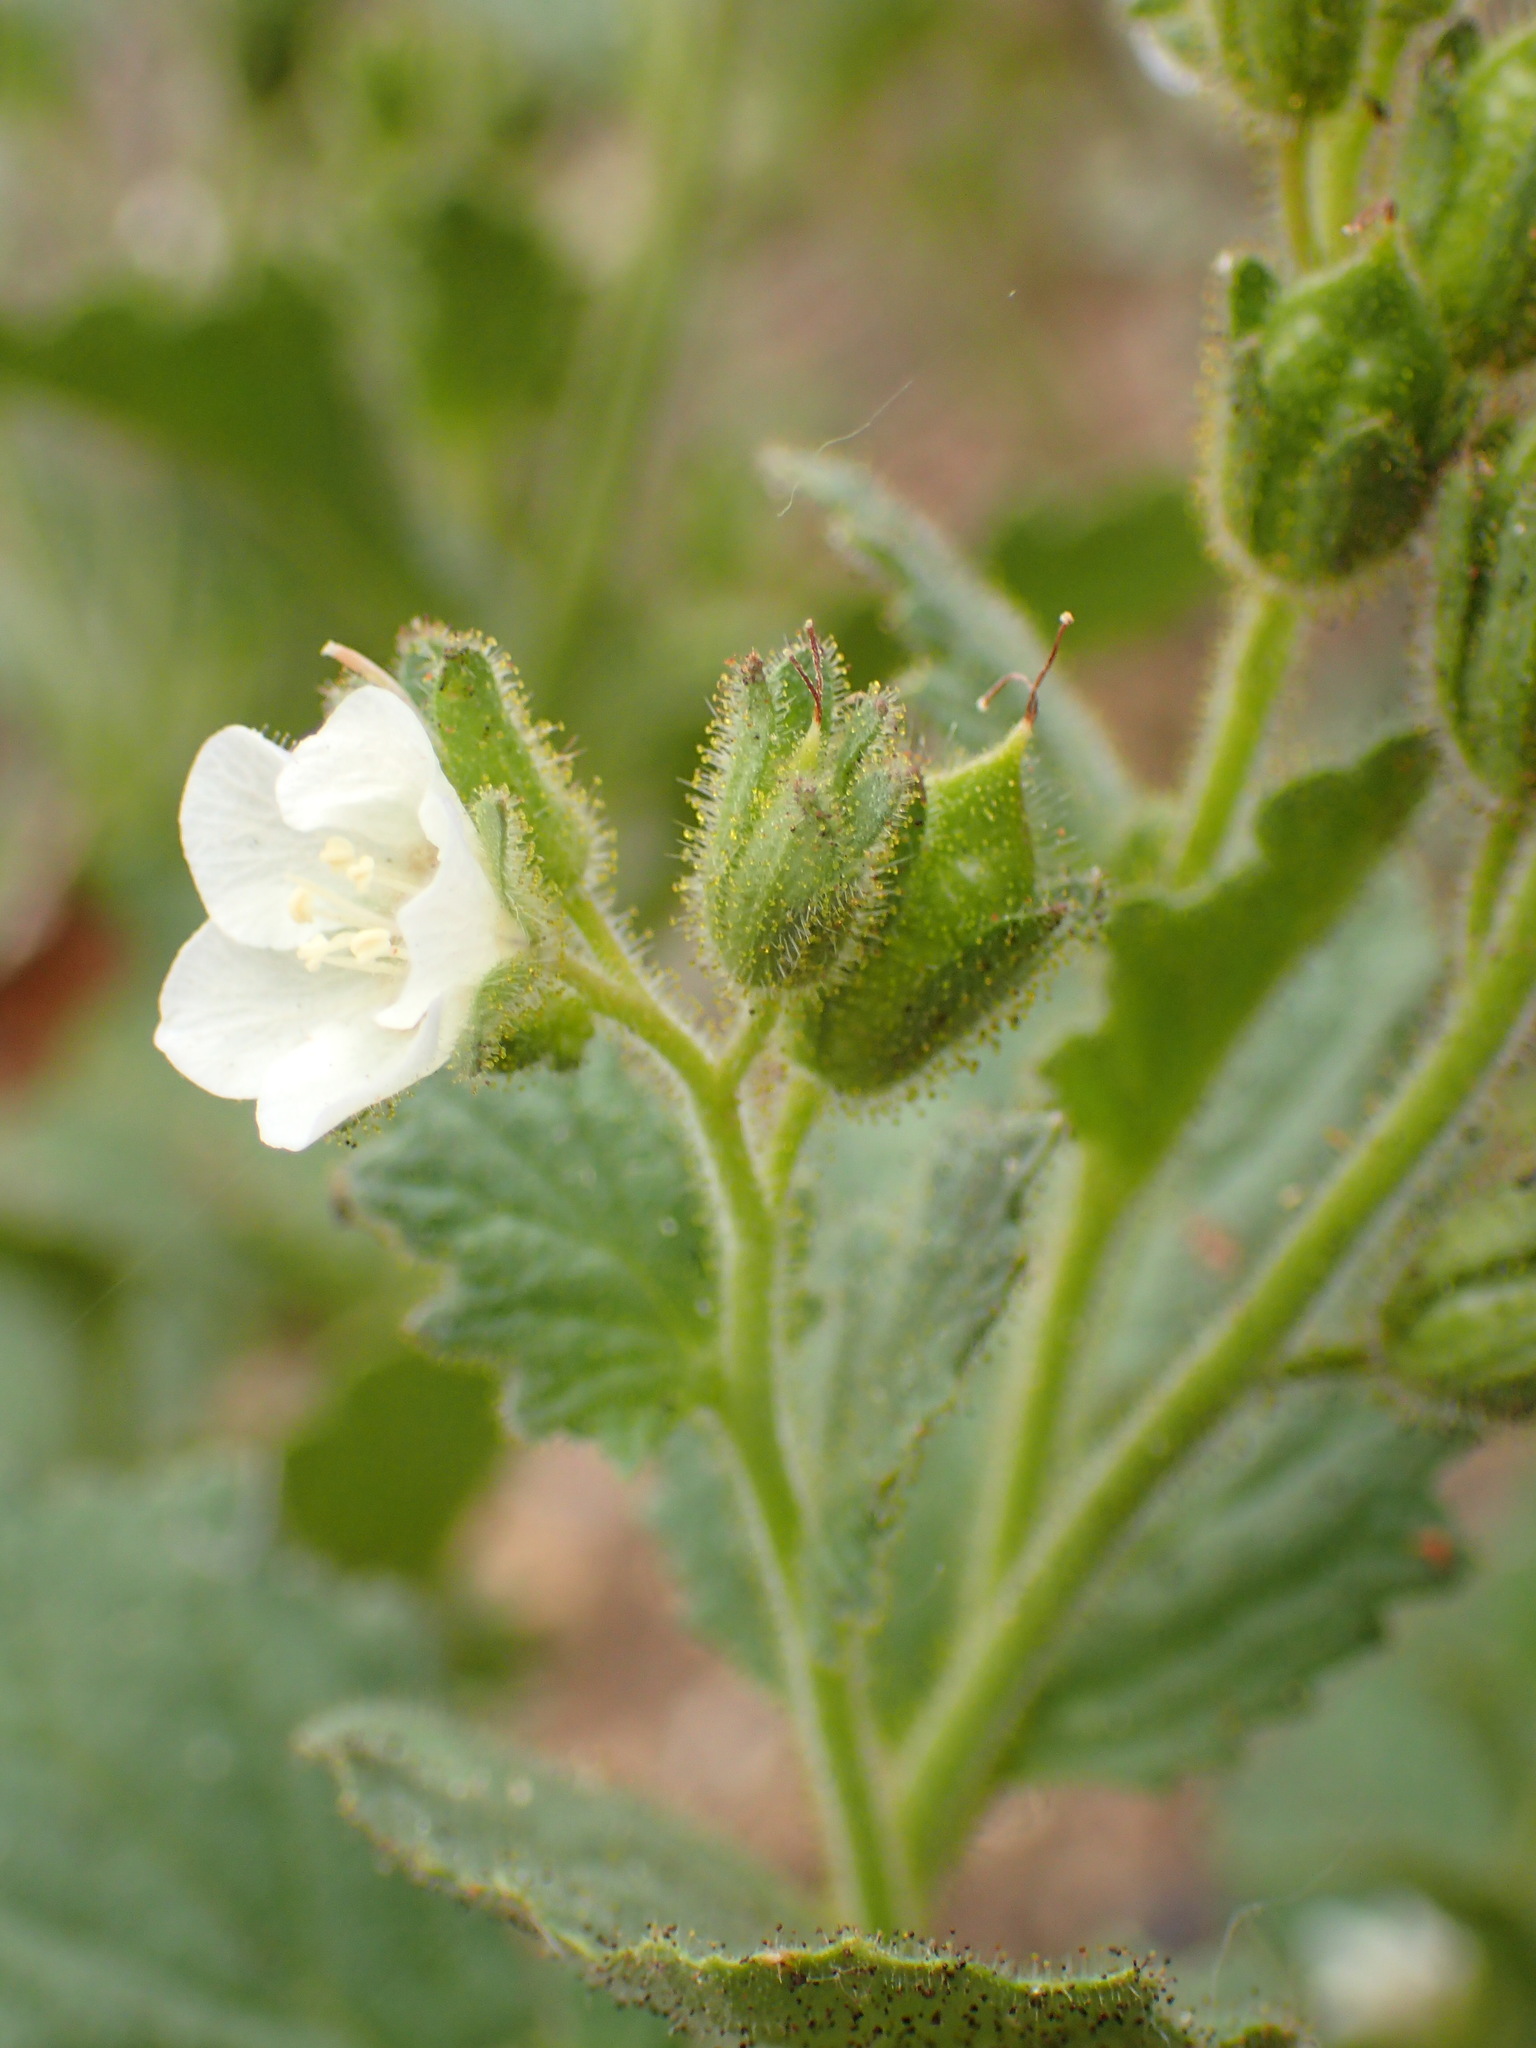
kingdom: Plantae
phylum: Tracheophyta
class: Magnoliopsida
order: Boraginales
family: Hydrophyllaceae
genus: Phacelia
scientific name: Phacelia viscida
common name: Sticky phacelia
